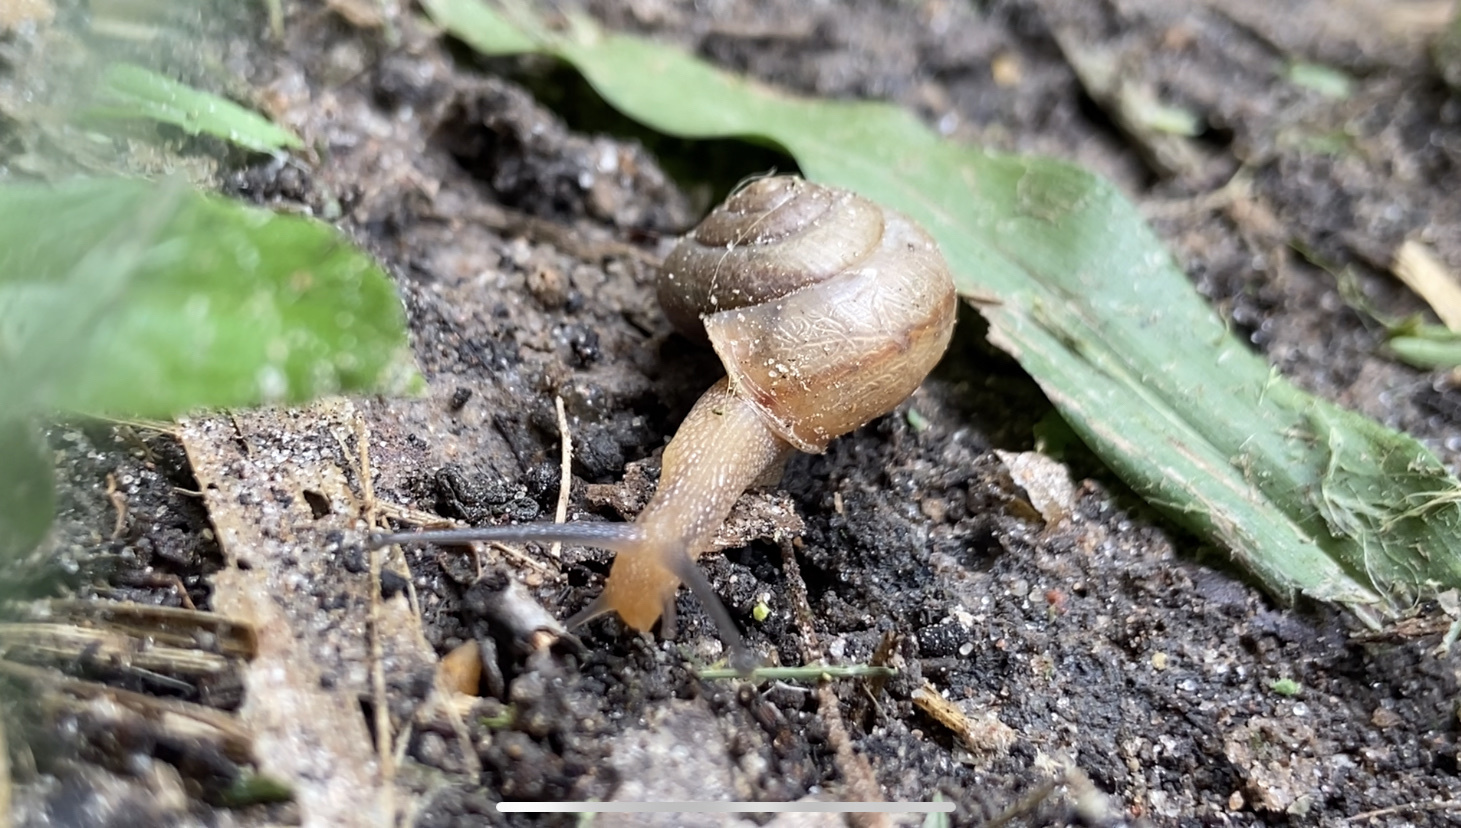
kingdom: Animalia
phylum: Mollusca
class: Gastropoda
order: Stylommatophora
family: Camaenidae
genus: Bradybaena
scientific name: Bradybaena similaris
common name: Asian trampsnail
